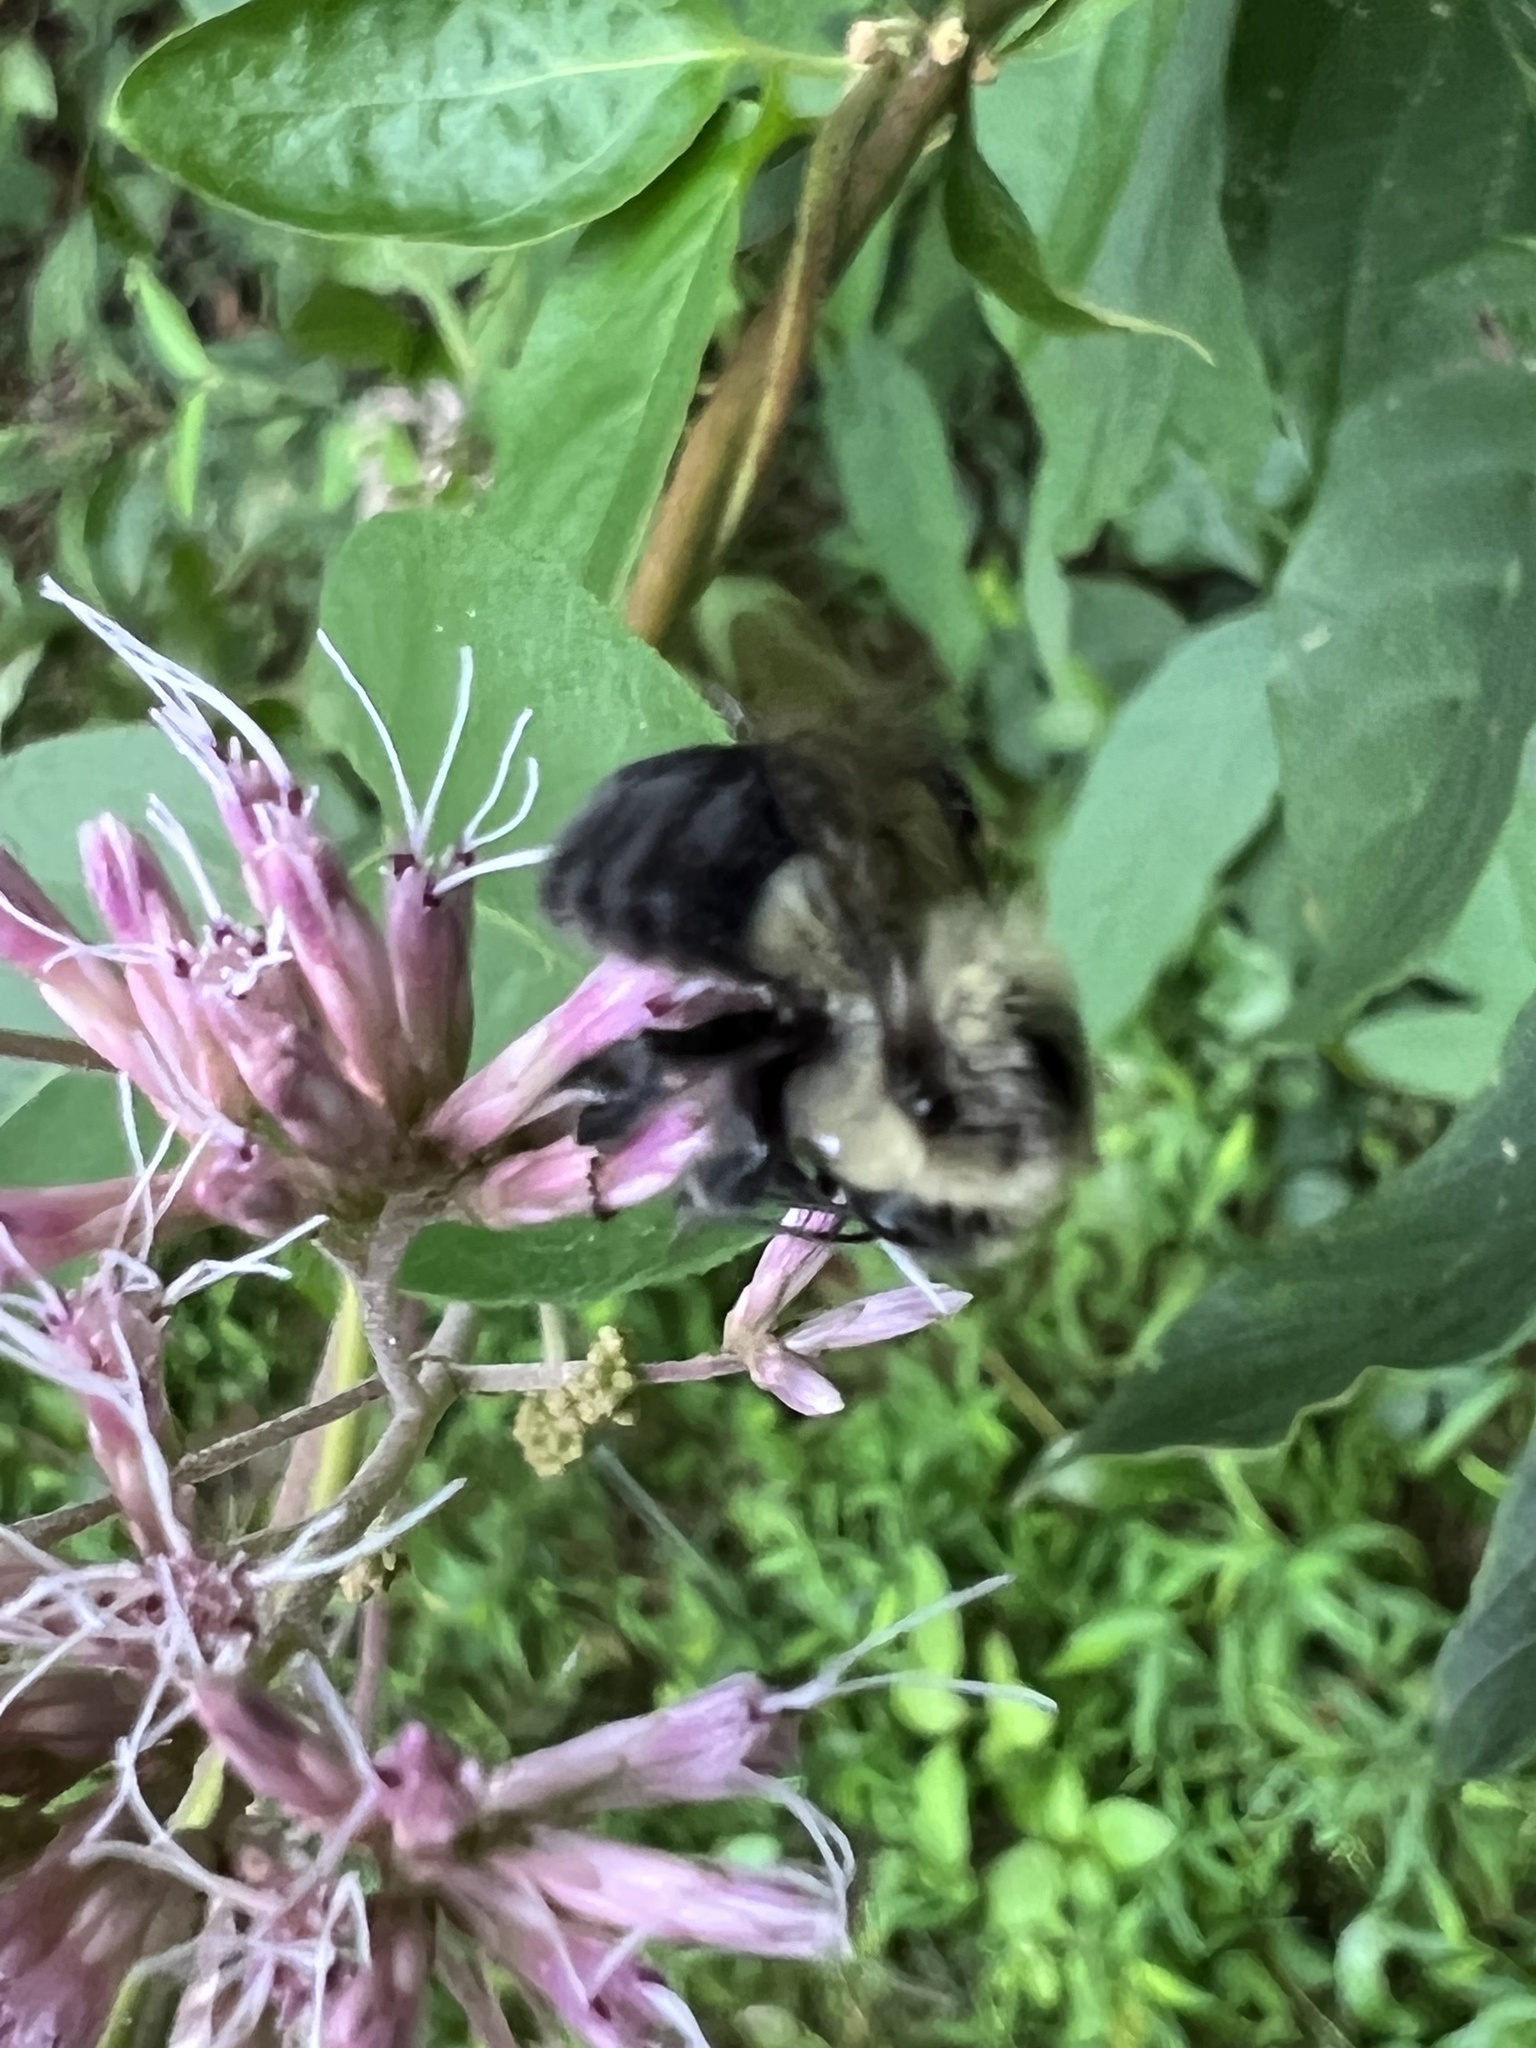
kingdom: Animalia
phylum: Arthropoda
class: Insecta
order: Hymenoptera
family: Apidae
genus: Bombus
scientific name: Bombus impatiens
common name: Common eastern bumble bee
